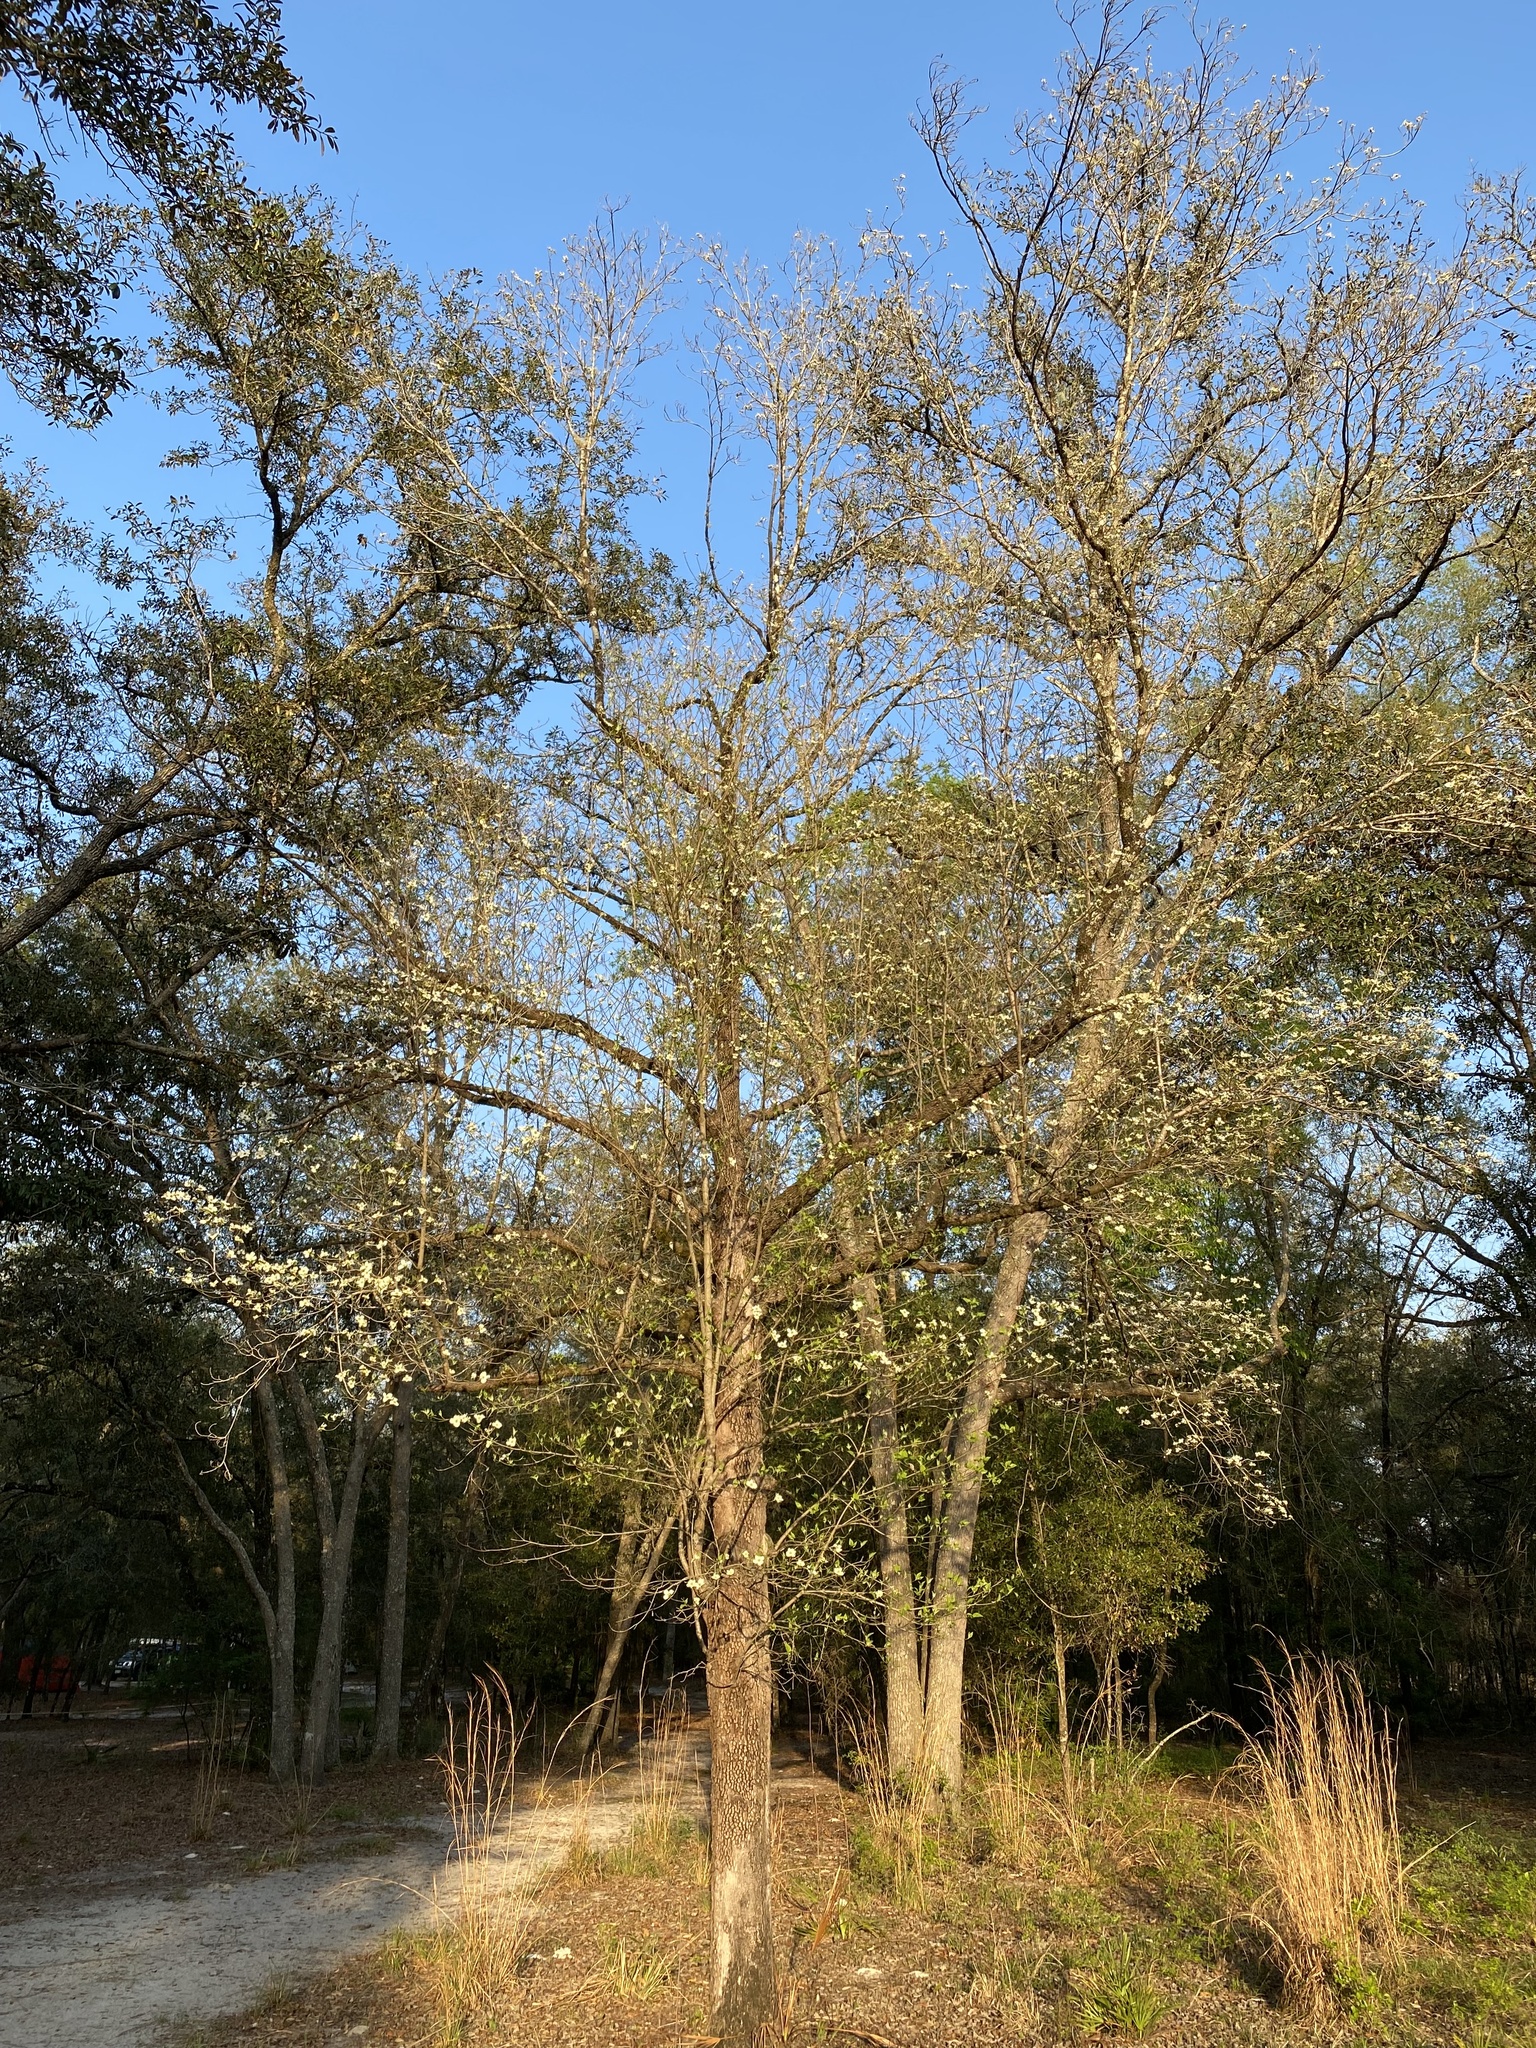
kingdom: Plantae
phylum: Tracheophyta
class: Magnoliopsida
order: Cornales
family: Cornaceae
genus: Cornus
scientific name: Cornus florida
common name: Flowering dogwood
